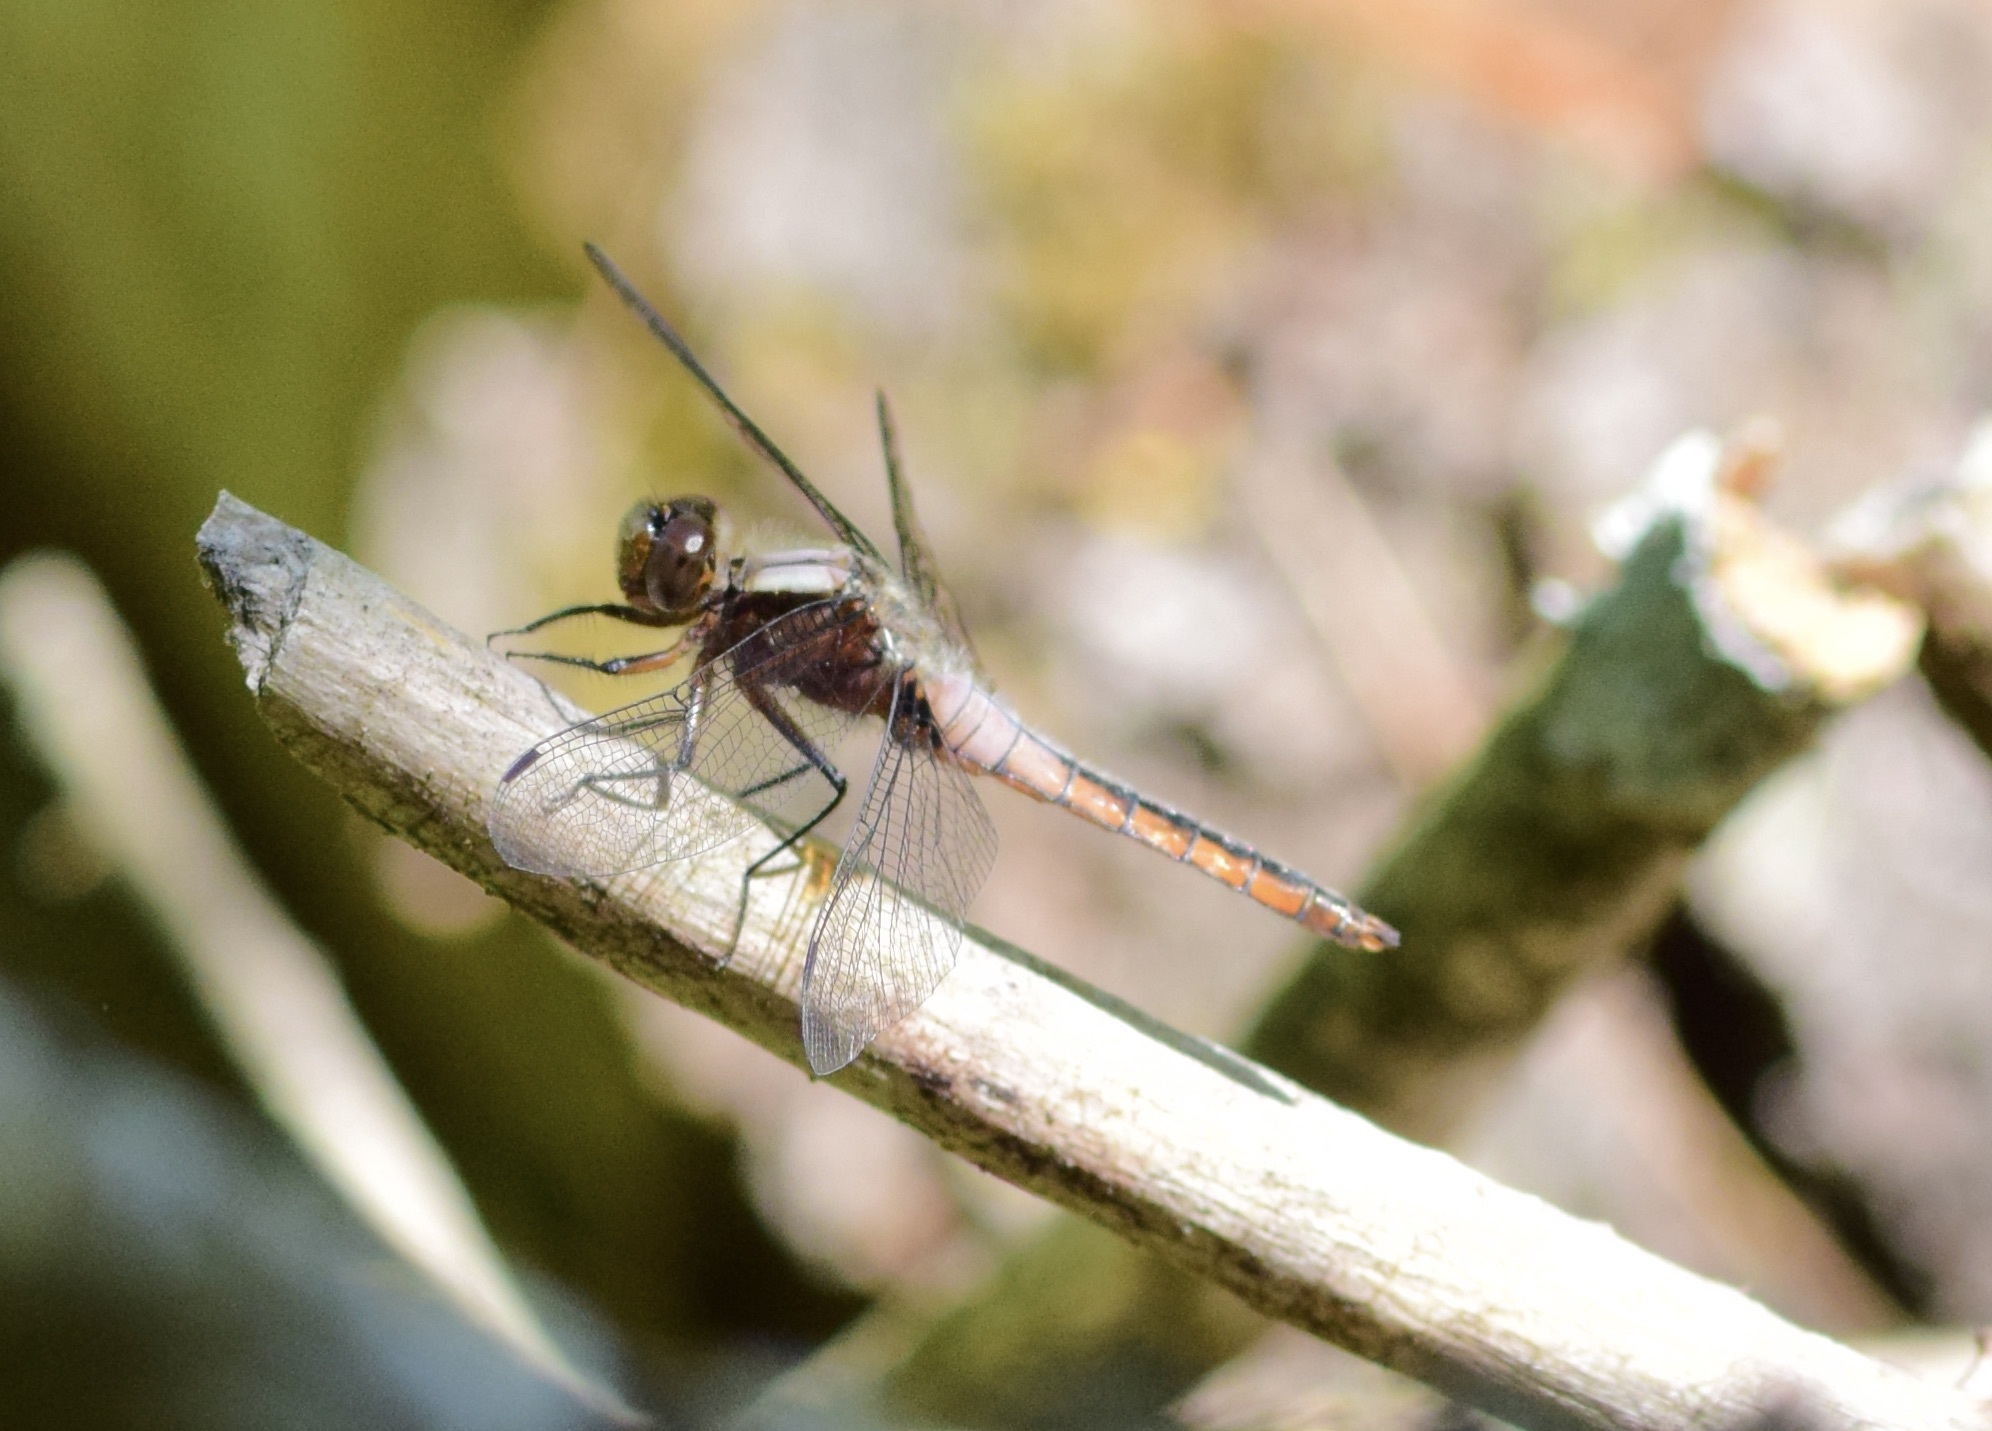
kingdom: Animalia
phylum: Arthropoda
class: Insecta
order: Odonata
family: Libellulidae
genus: Ladona
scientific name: Ladona julia
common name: Chalk-fronted corporal
